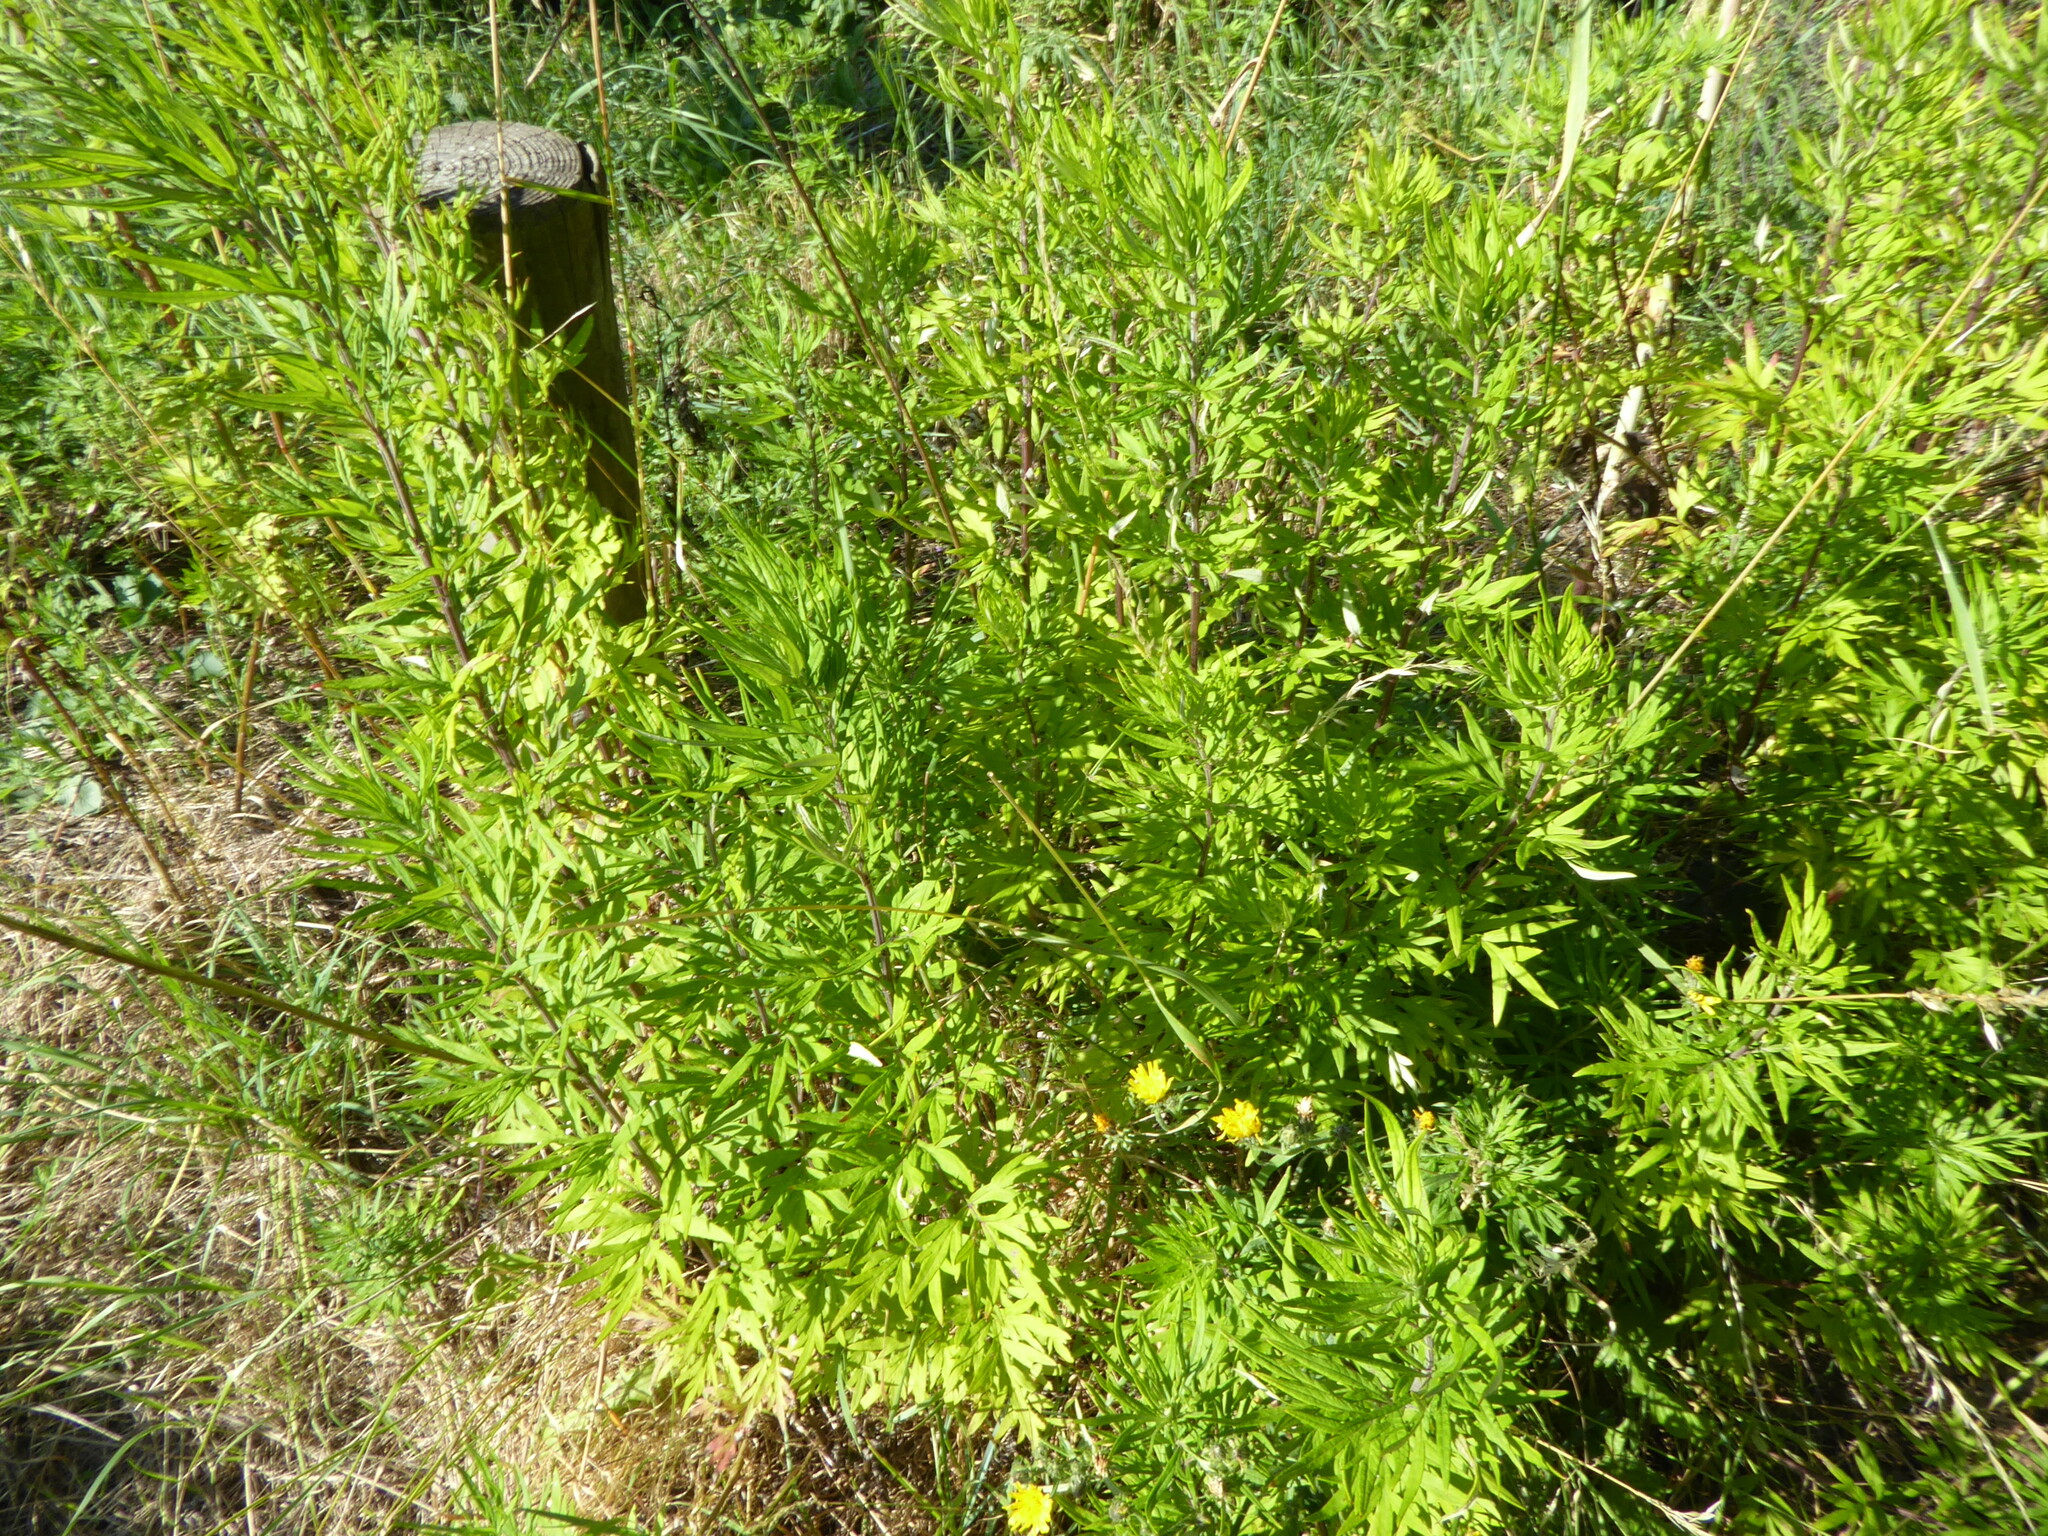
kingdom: Plantae
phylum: Tracheophyta
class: Magnoliopsida
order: Asterales
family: Asteraceae
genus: Artemisia
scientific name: Artemisia verlotiorum
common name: Chinese mugwort
